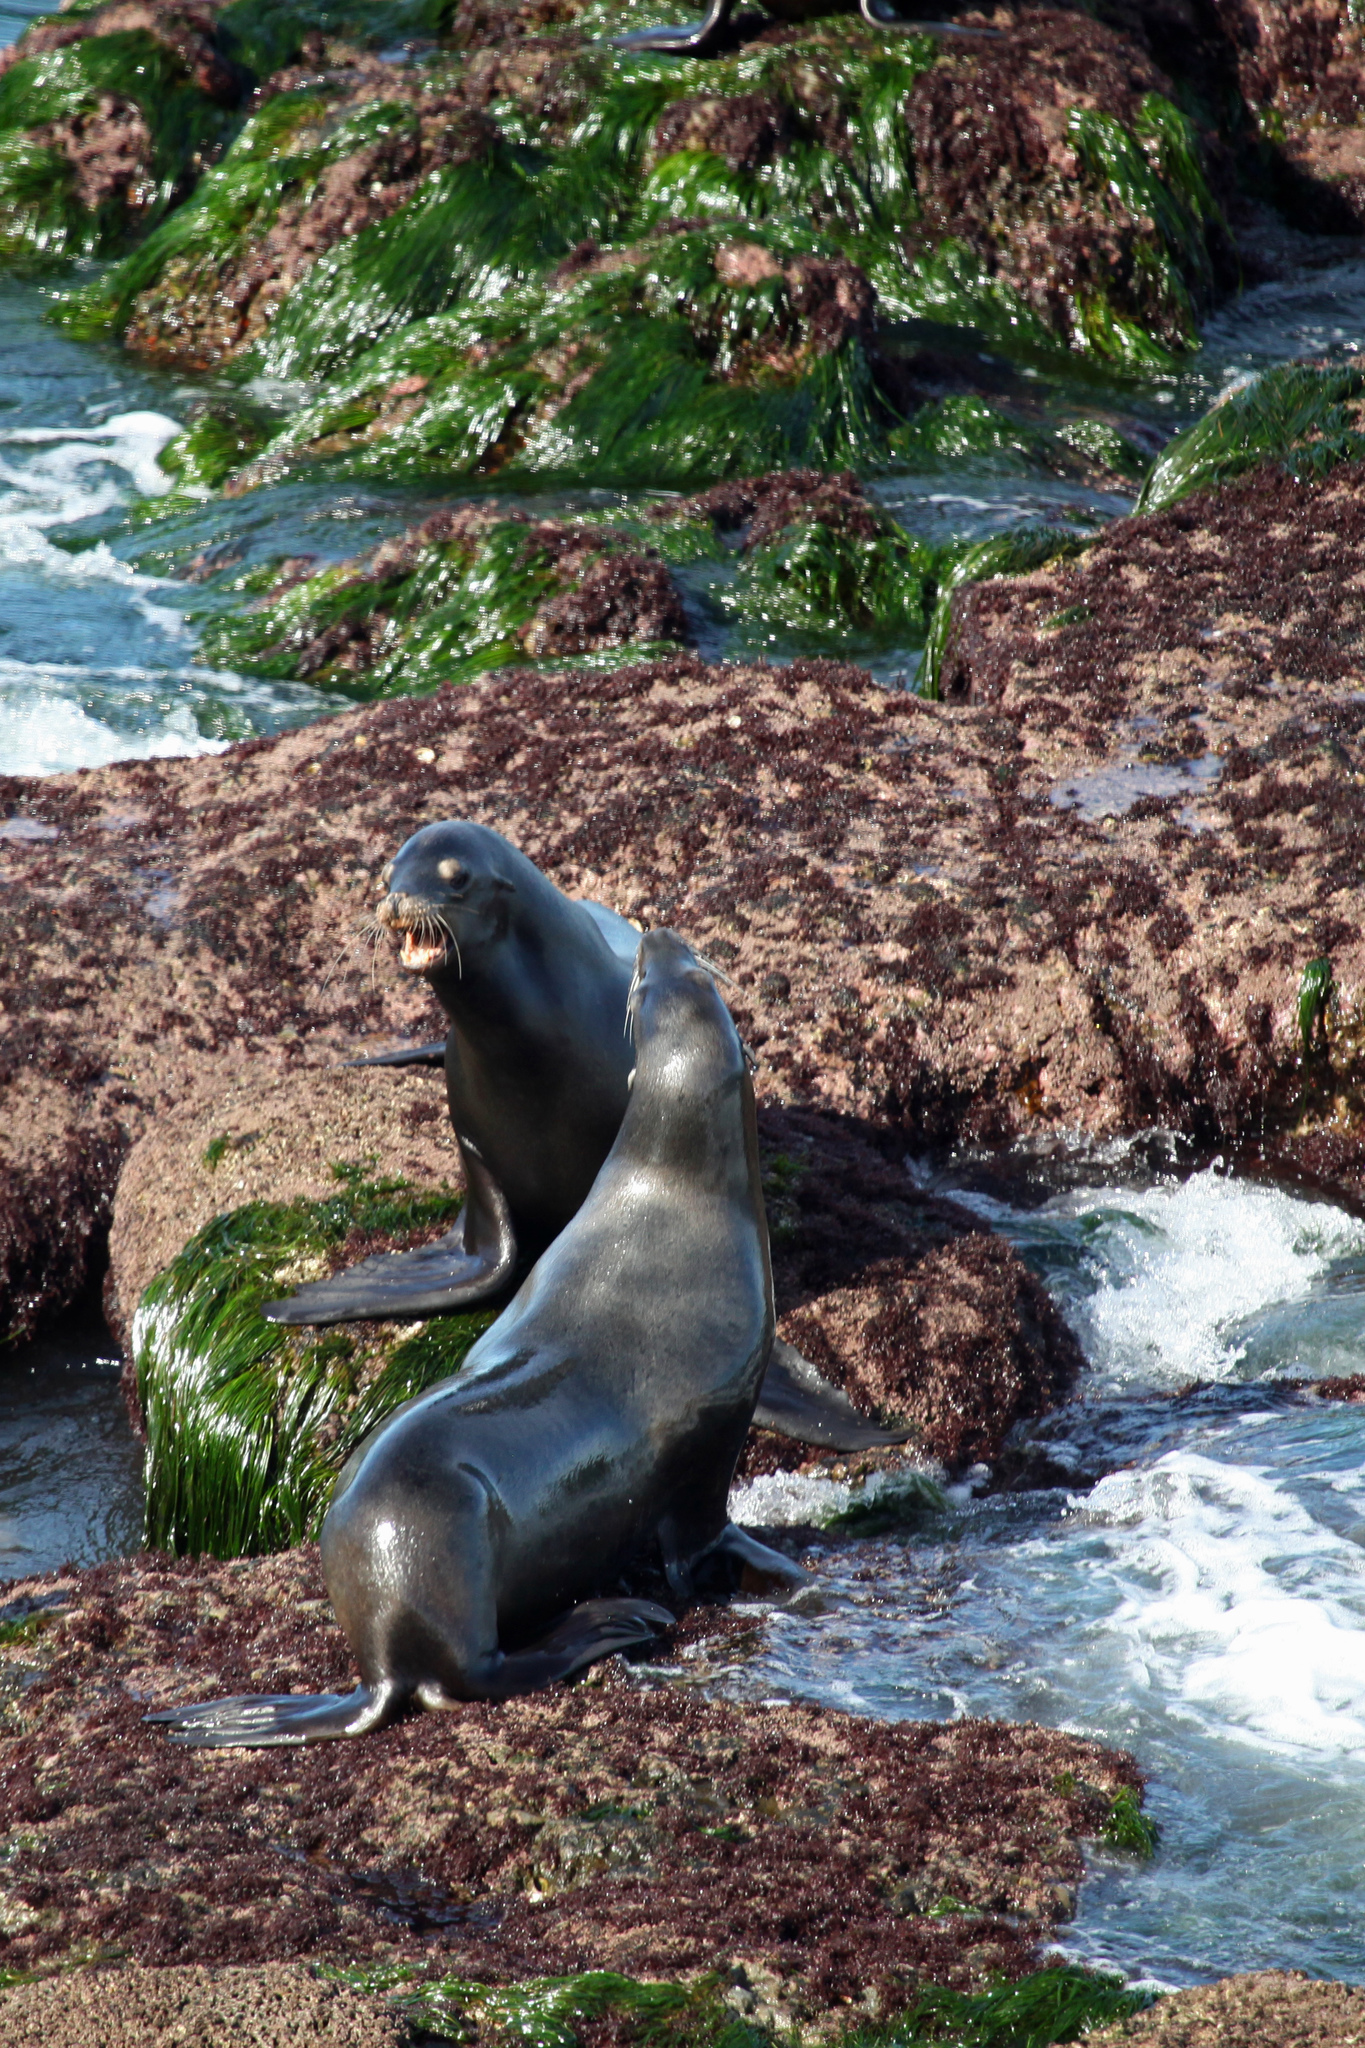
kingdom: Animalia
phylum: Chordata
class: Mammalia
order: Carnivora
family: Otariidae
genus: Zalophus
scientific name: Zalophus californianus
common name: California sea lion
